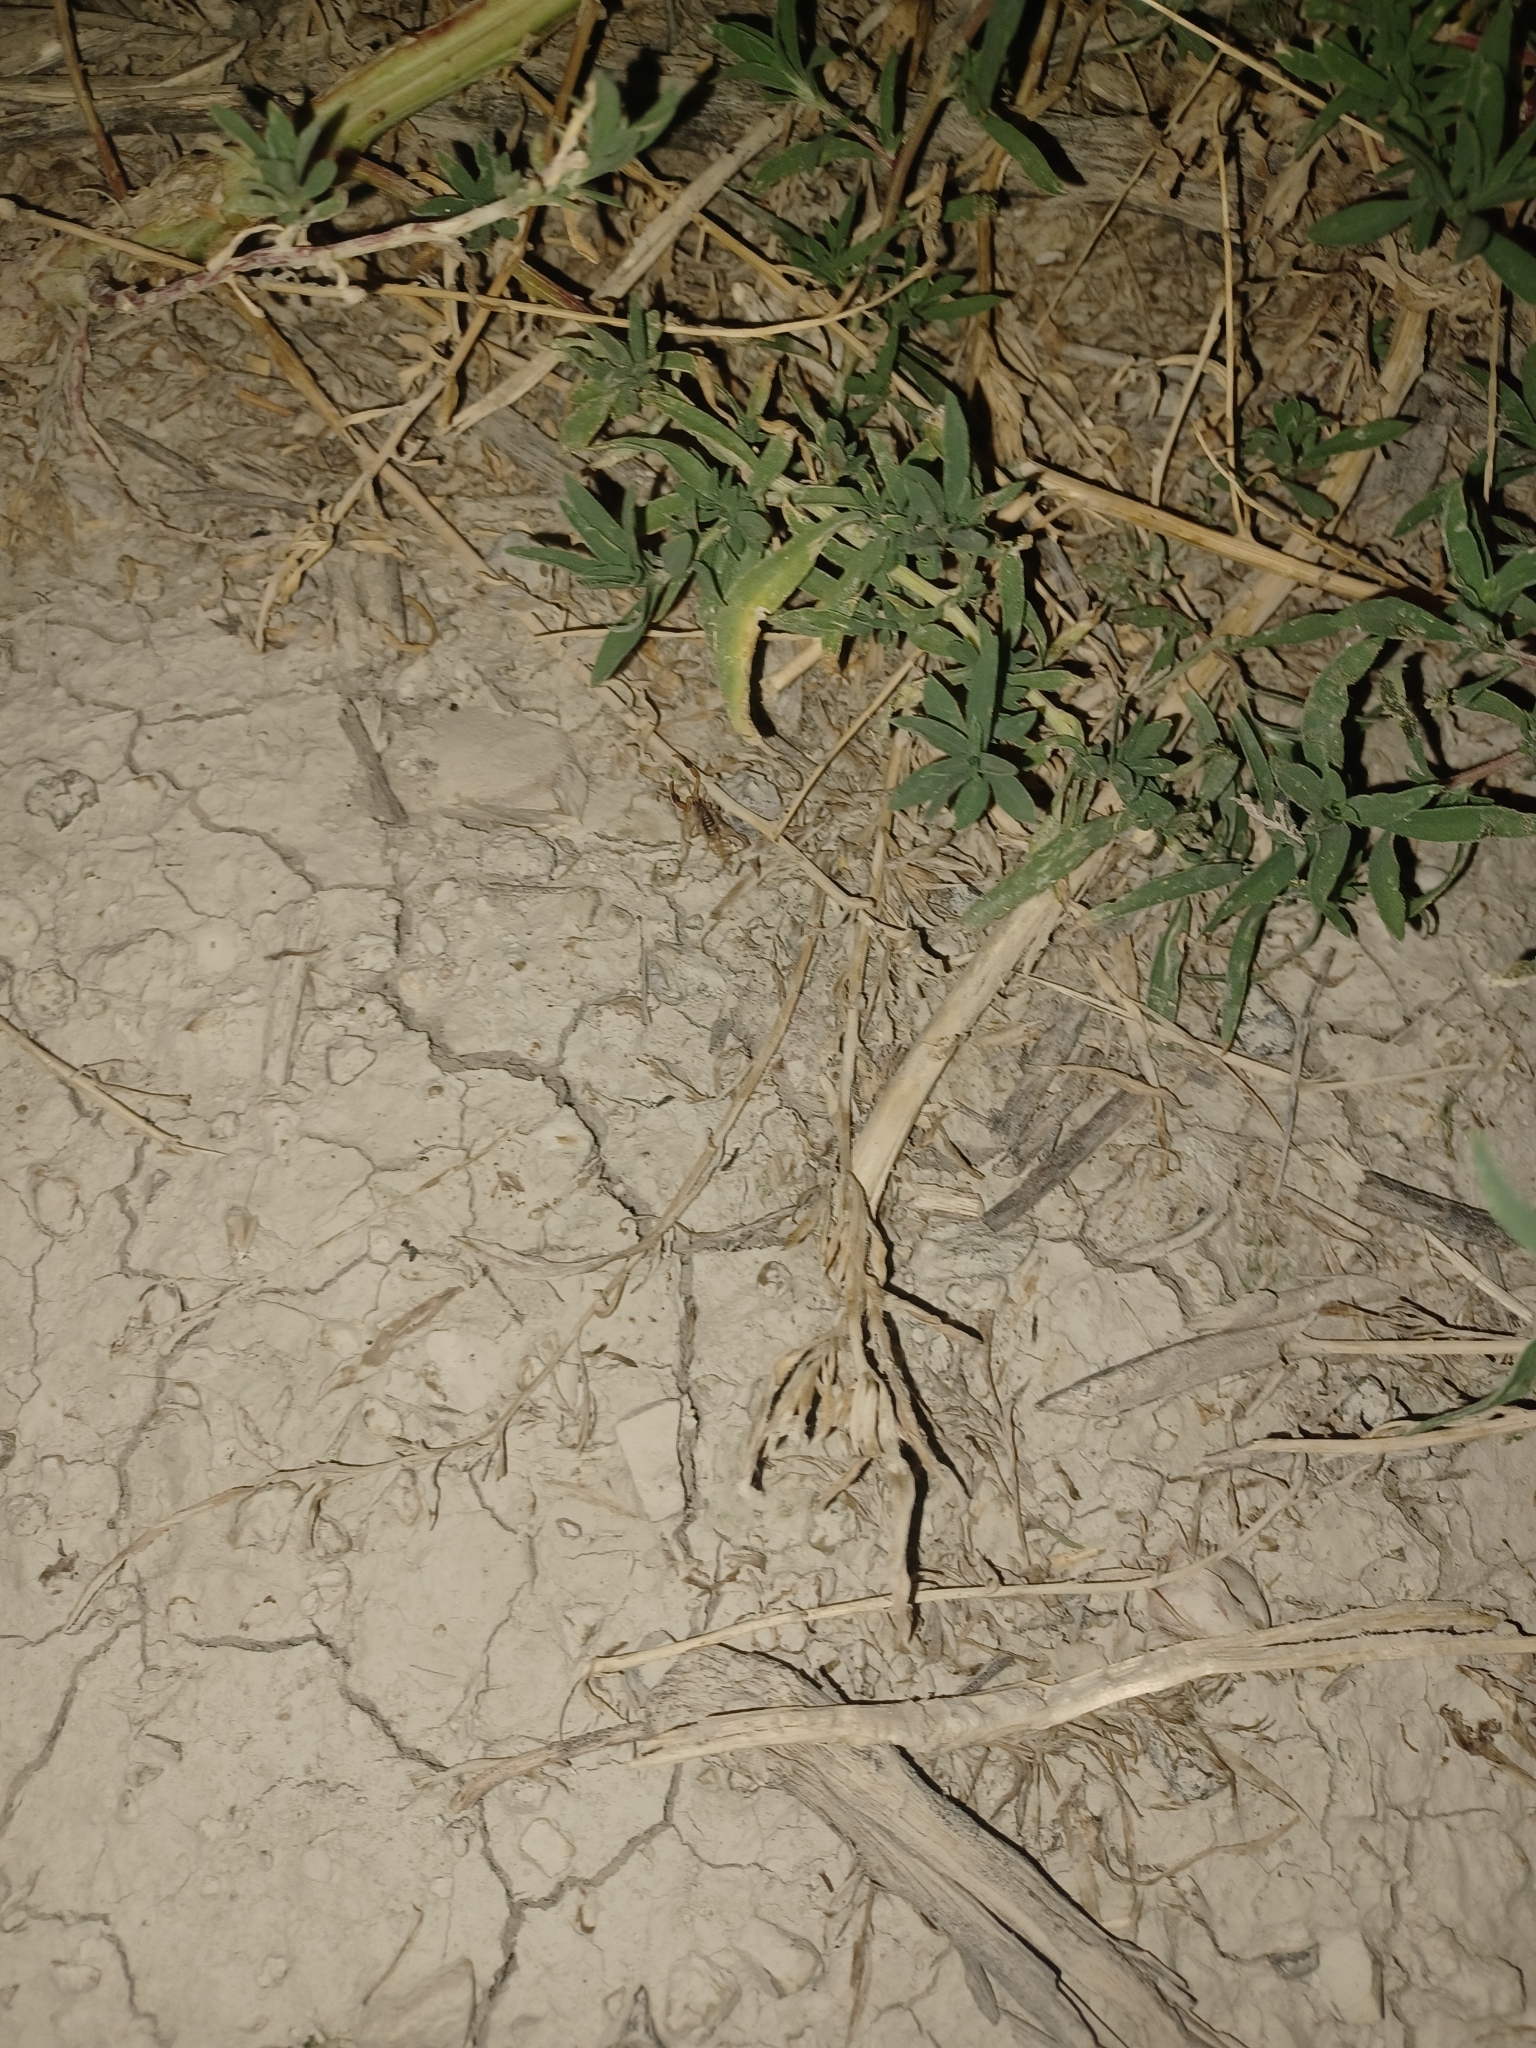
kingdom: Animalia
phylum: Arthropoda
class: Arachnida
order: Scorpiones
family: Buthidae
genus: Centruroides
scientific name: Centruroides vittatus
